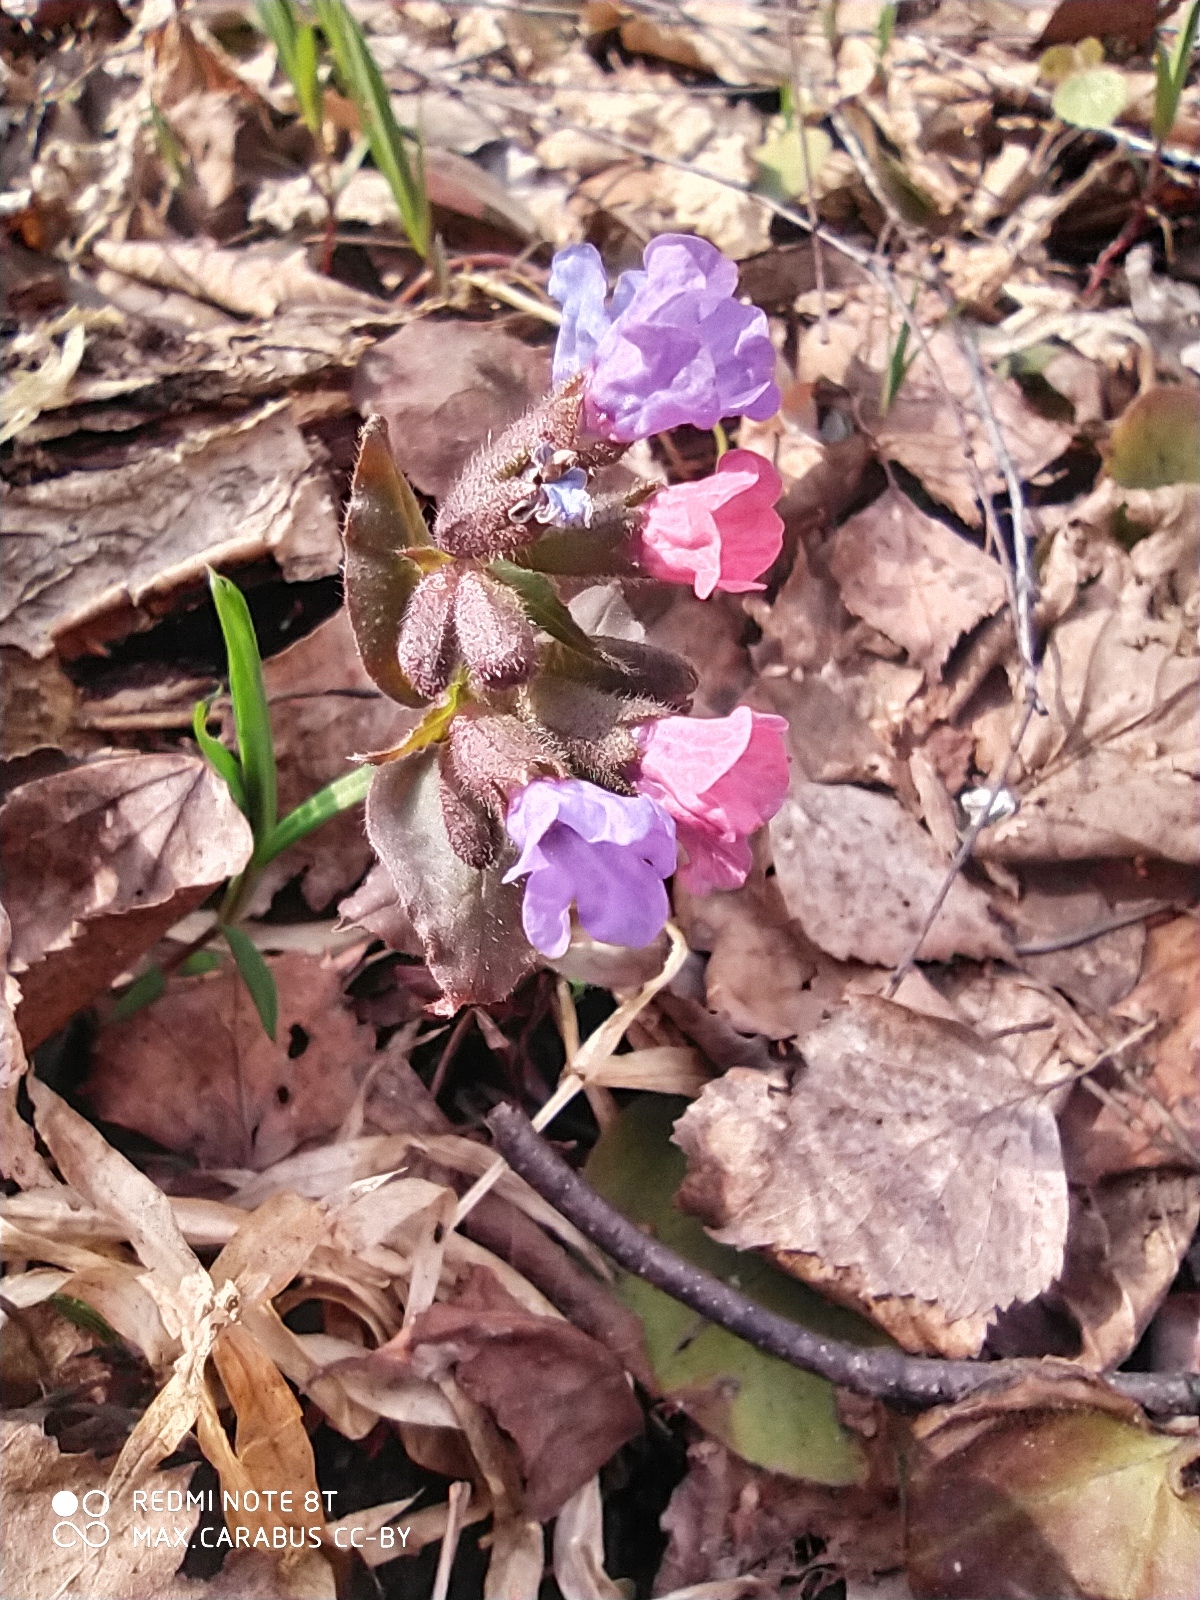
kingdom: Plantae
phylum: Tracheophyta
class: Magnoliopsida
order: Boraginales
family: Boraginaceae
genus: Pulmonaria
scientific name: Pulmonaria obscura
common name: Suffolk lungwort
